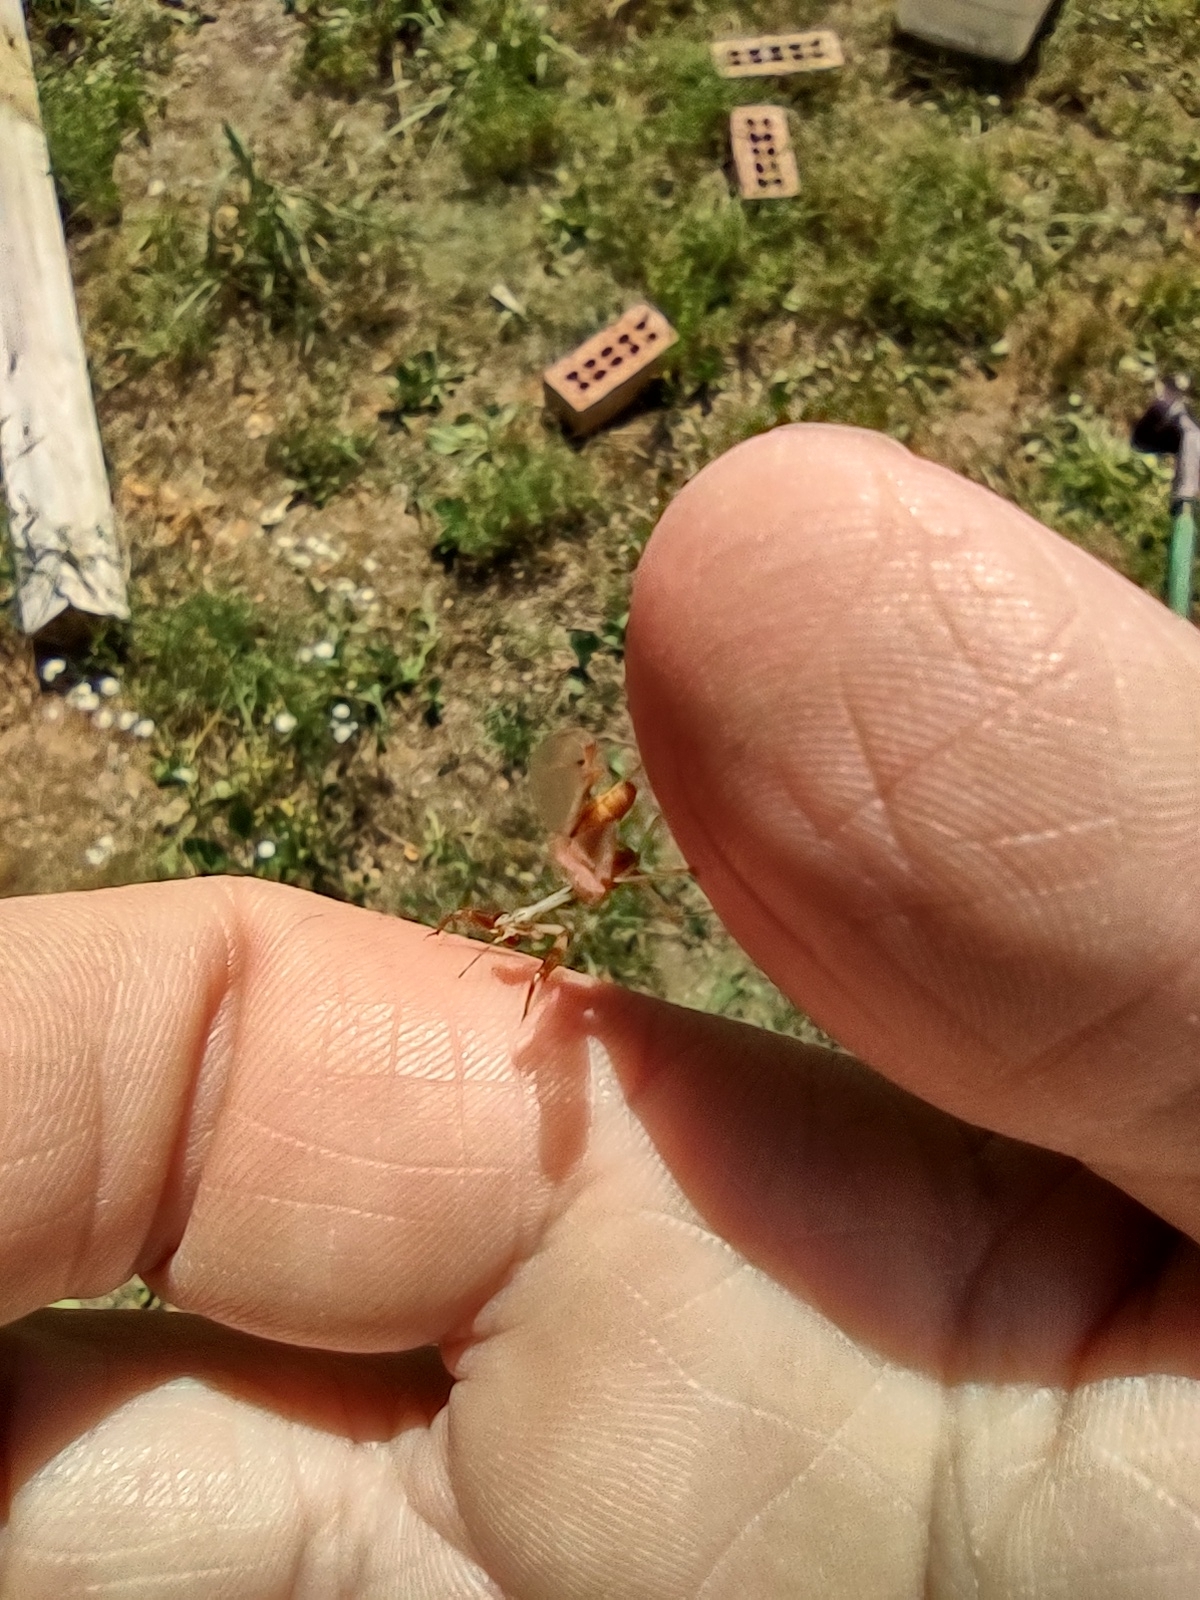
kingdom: Animalia
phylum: Arthropoda
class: Insecta
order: Neuroptera
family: Mantispidae
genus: Dicromantispa
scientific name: Dicromantispa interrupta
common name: Four-spotted mantidfly
